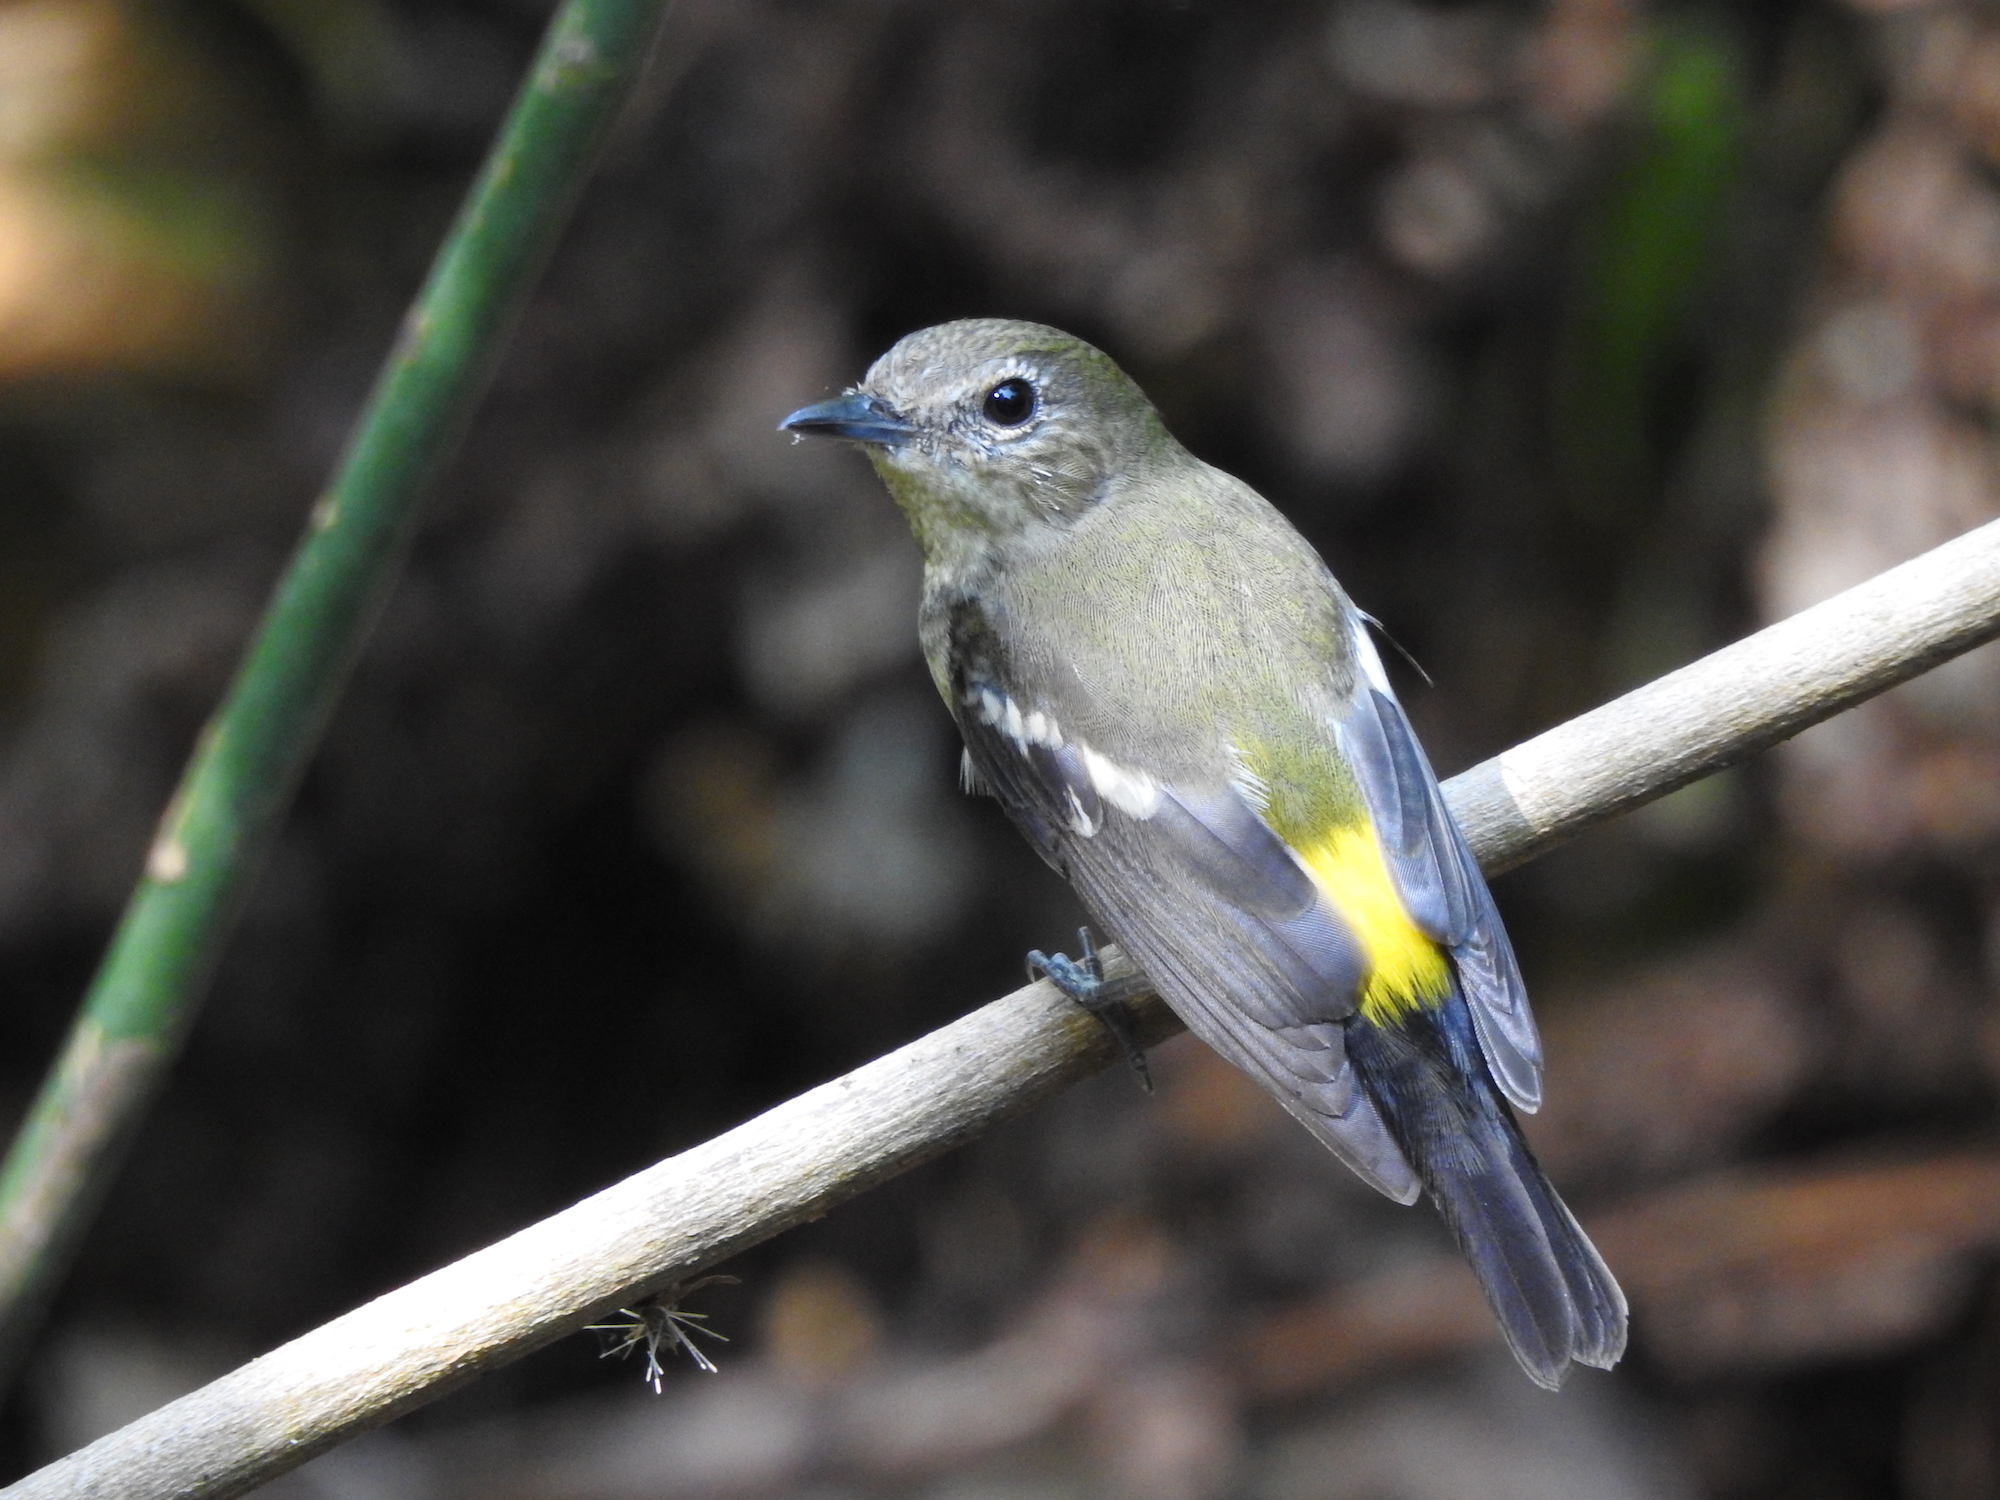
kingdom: Animalia
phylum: Chordata
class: Aves
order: Passeriformes
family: Muscicapidae
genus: Ficedula
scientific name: Ficedula zanthopygia
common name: Yellow-rumped flycatcher
